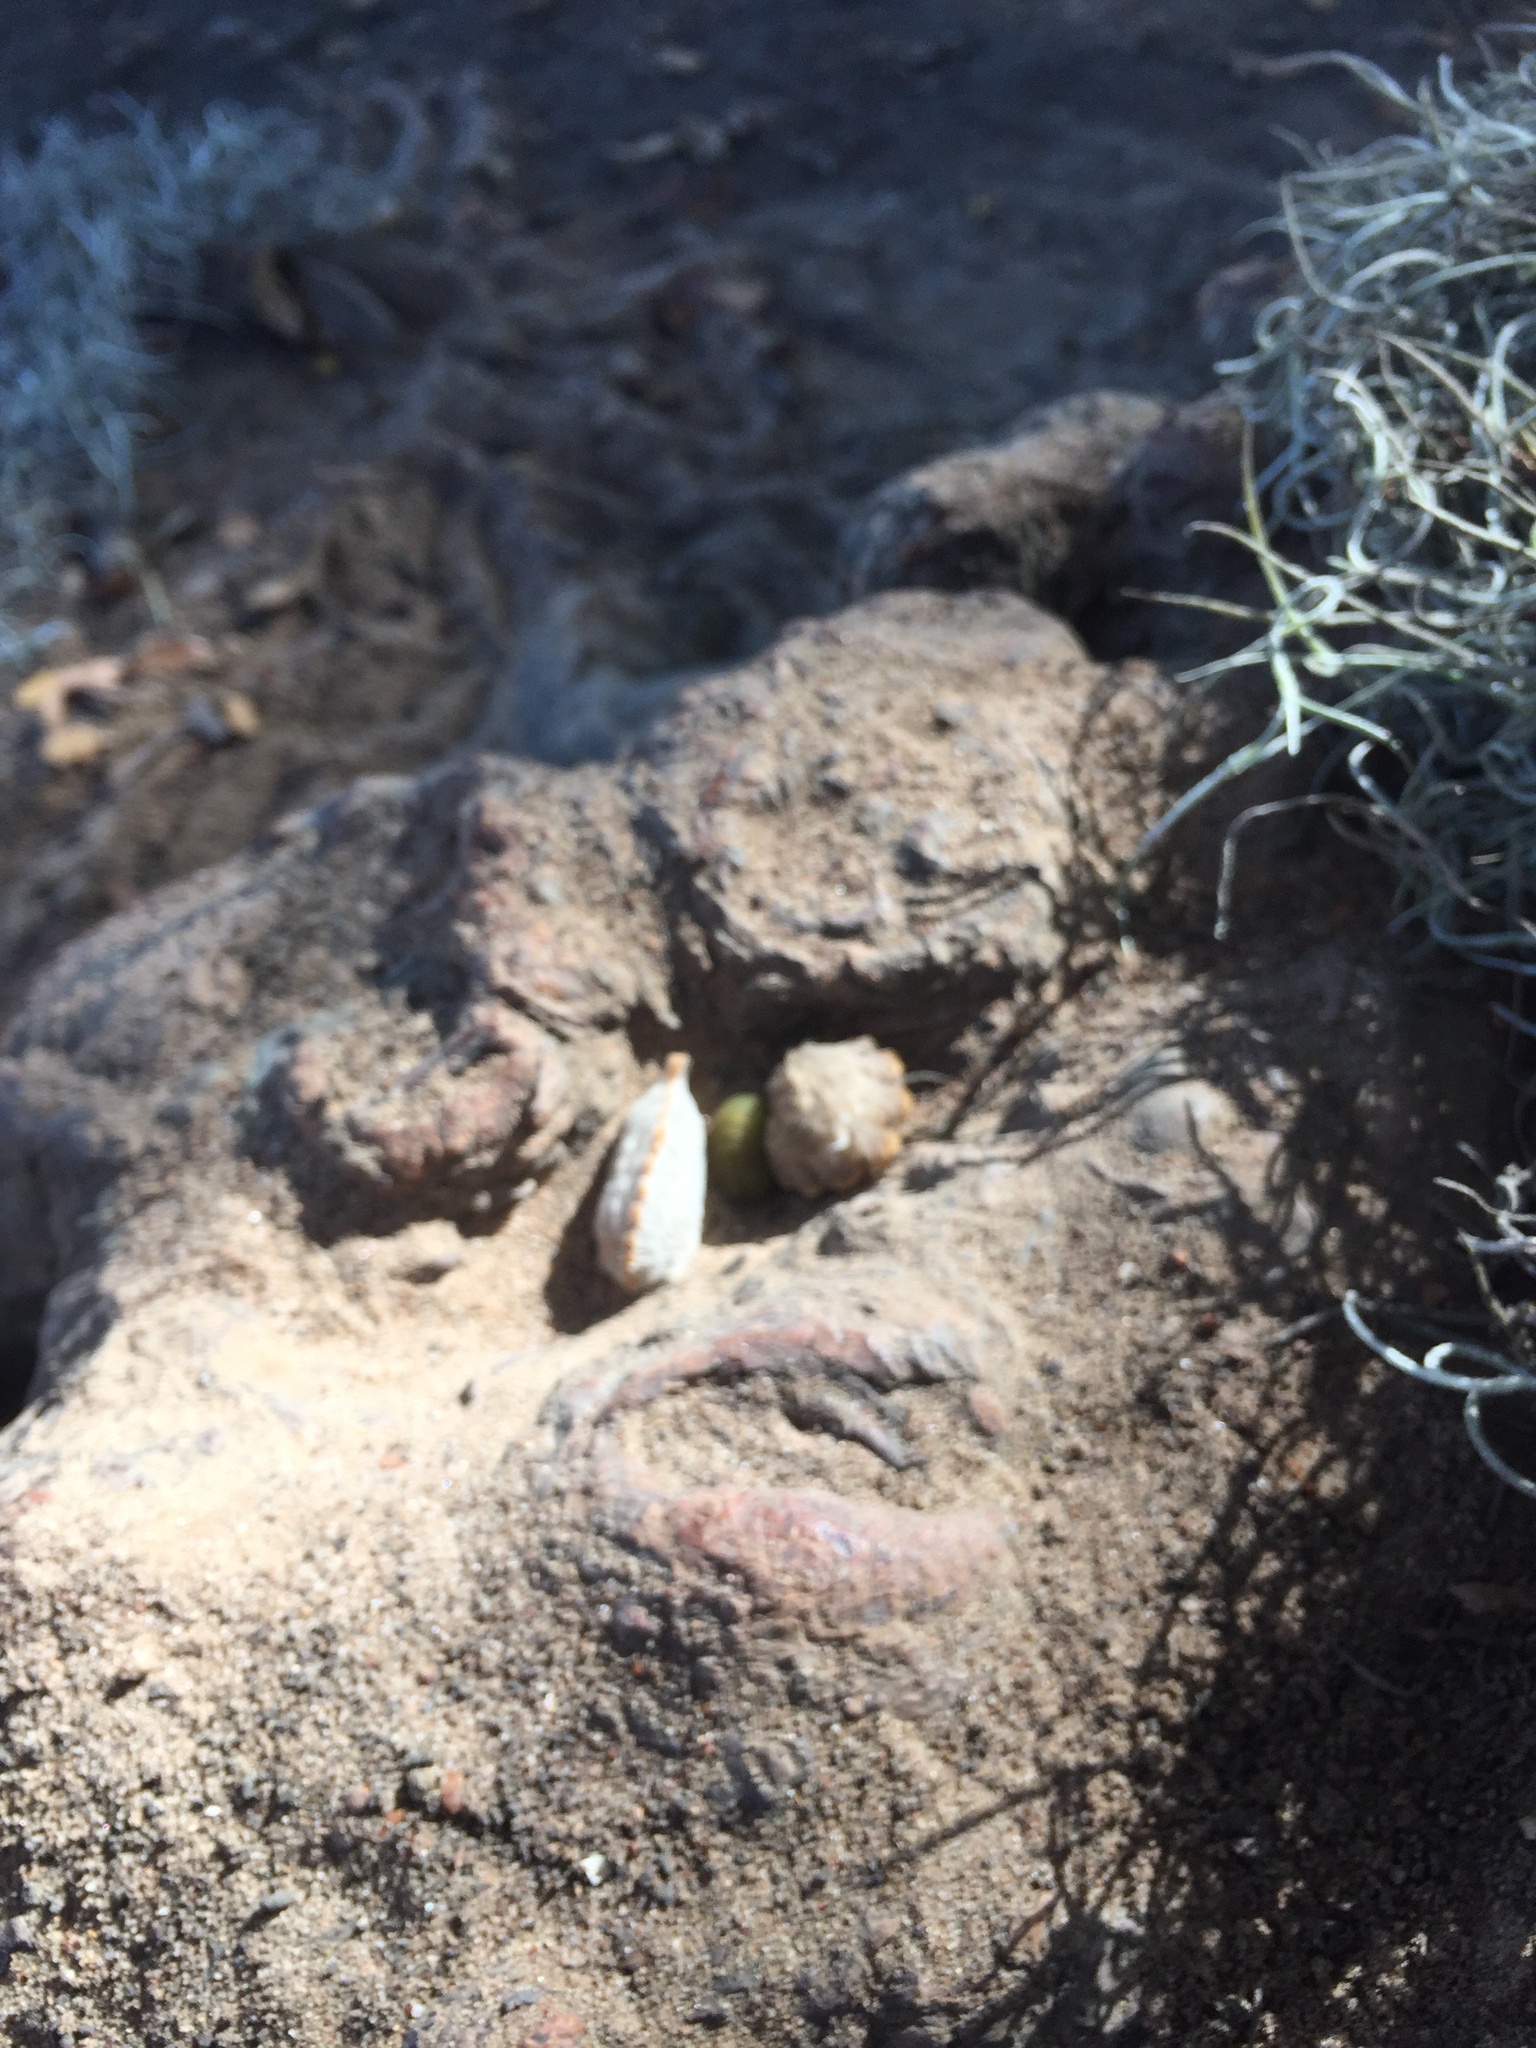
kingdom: Animalia
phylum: Arthropoda
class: Insecta
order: Lepidoptera
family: Megalopygidae
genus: Megalopyge
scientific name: Megalopyge opercularis
